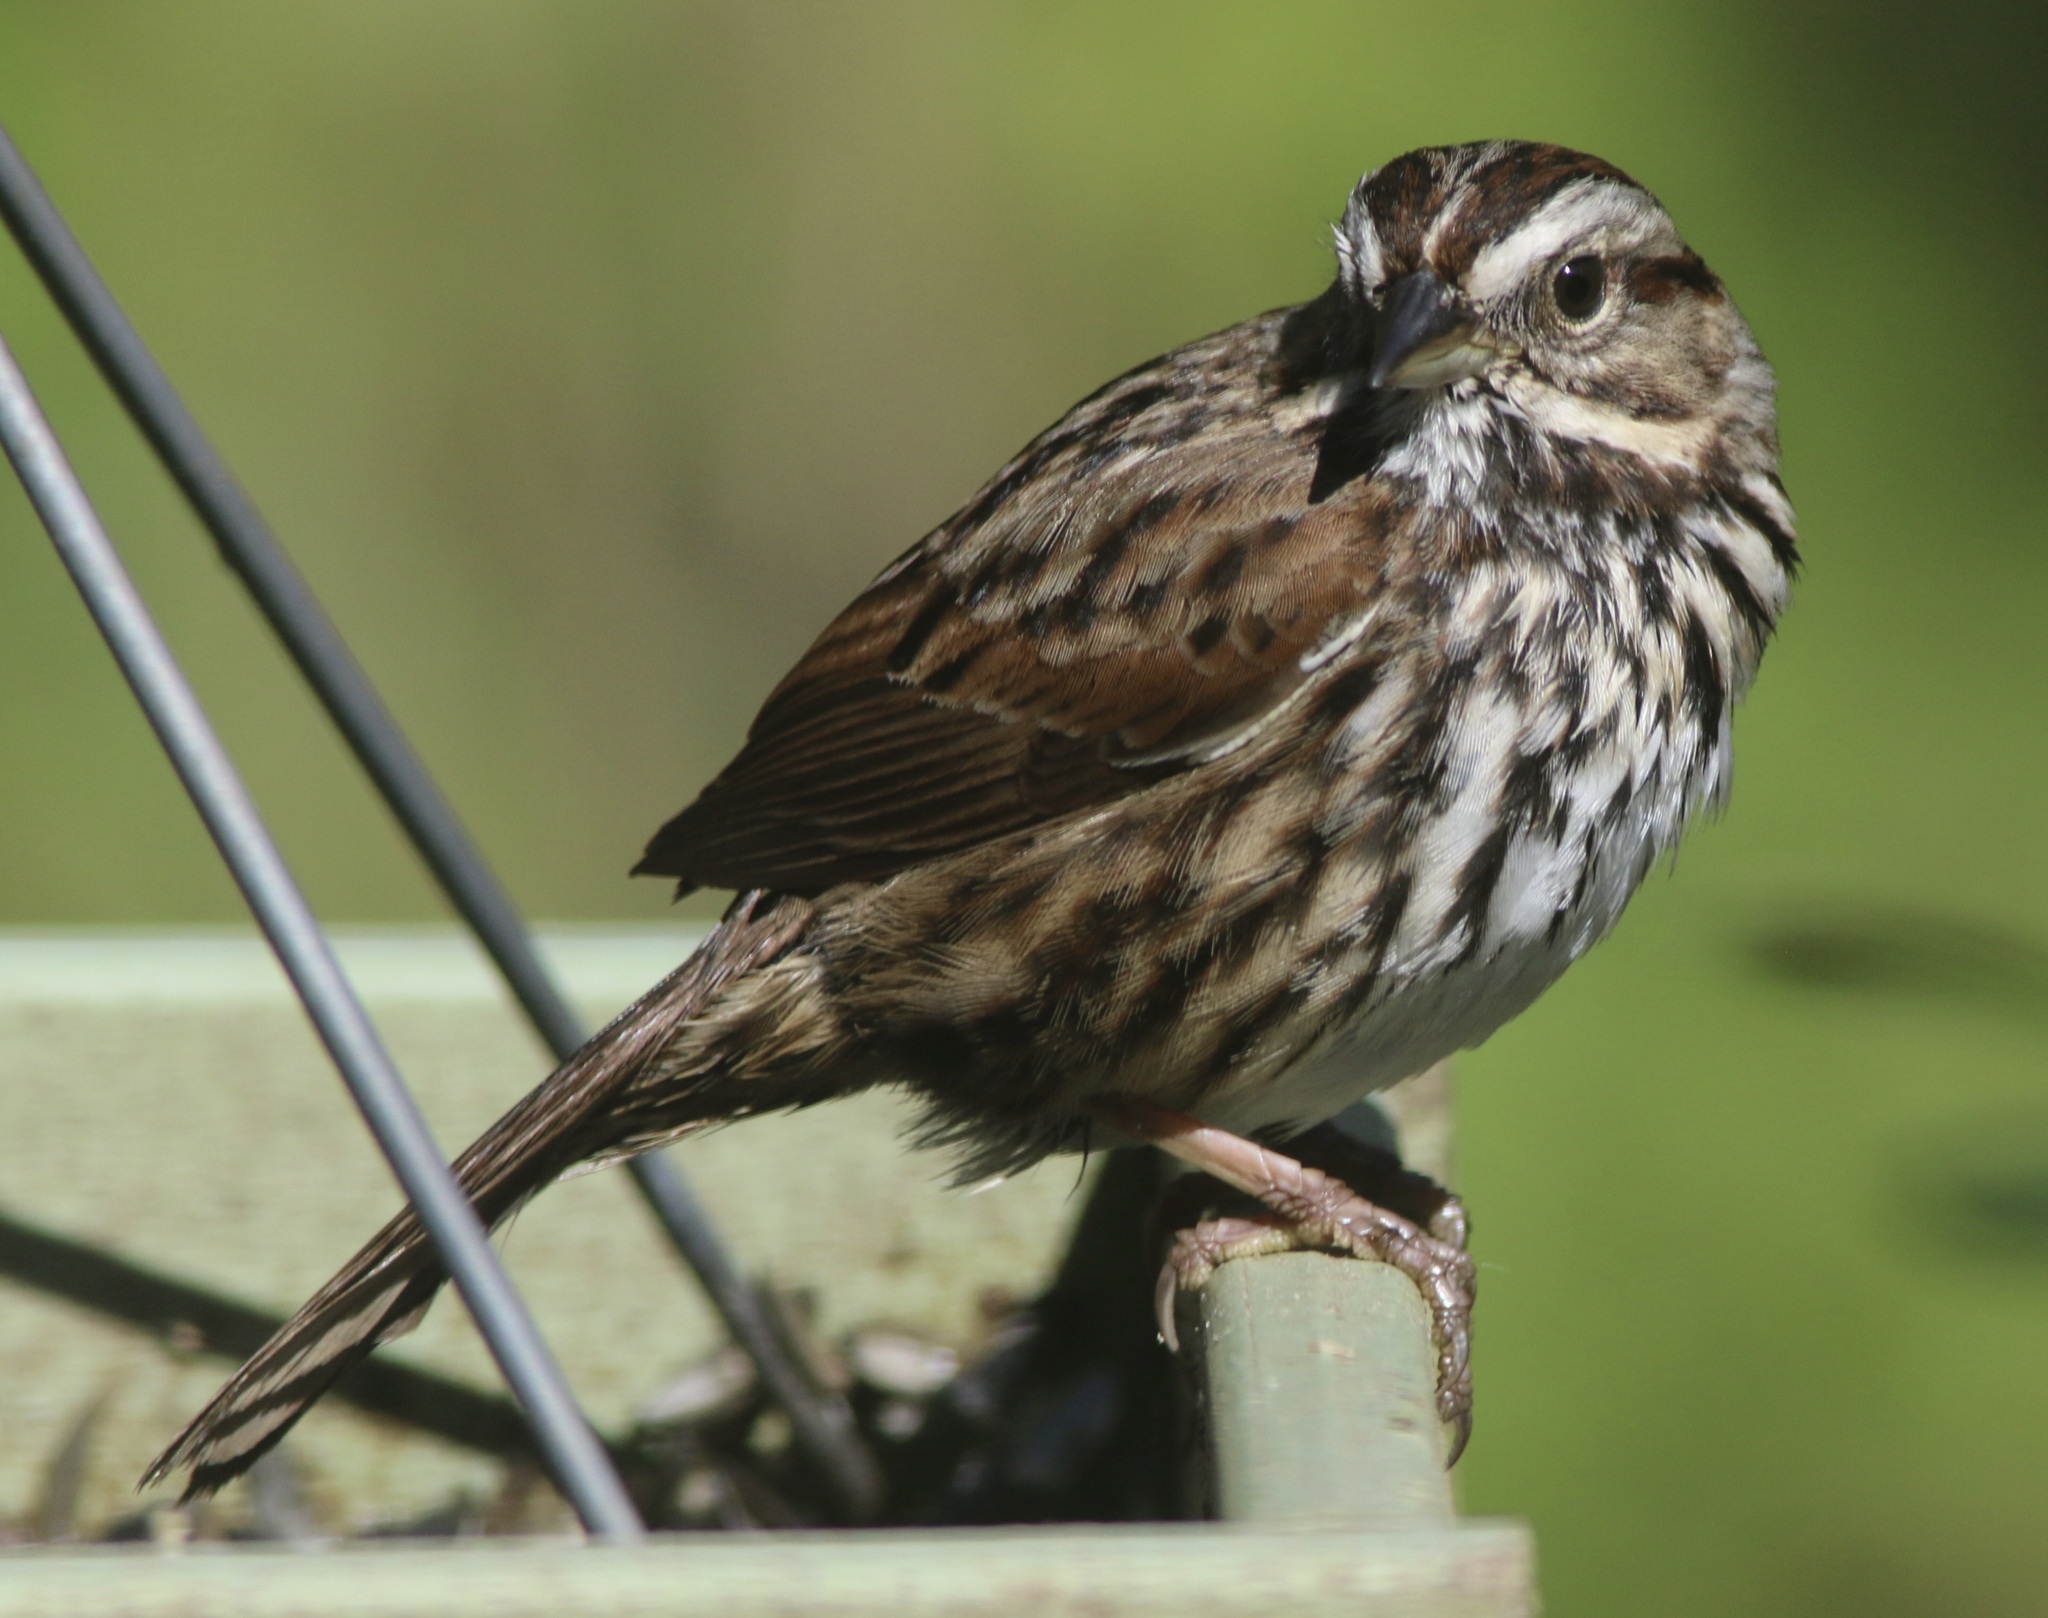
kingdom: Animalia
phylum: Chordata
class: Aves
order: Passeriformes
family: Passerellidae
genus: Melospiza
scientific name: Melospiza melodia
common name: Song sparrow
